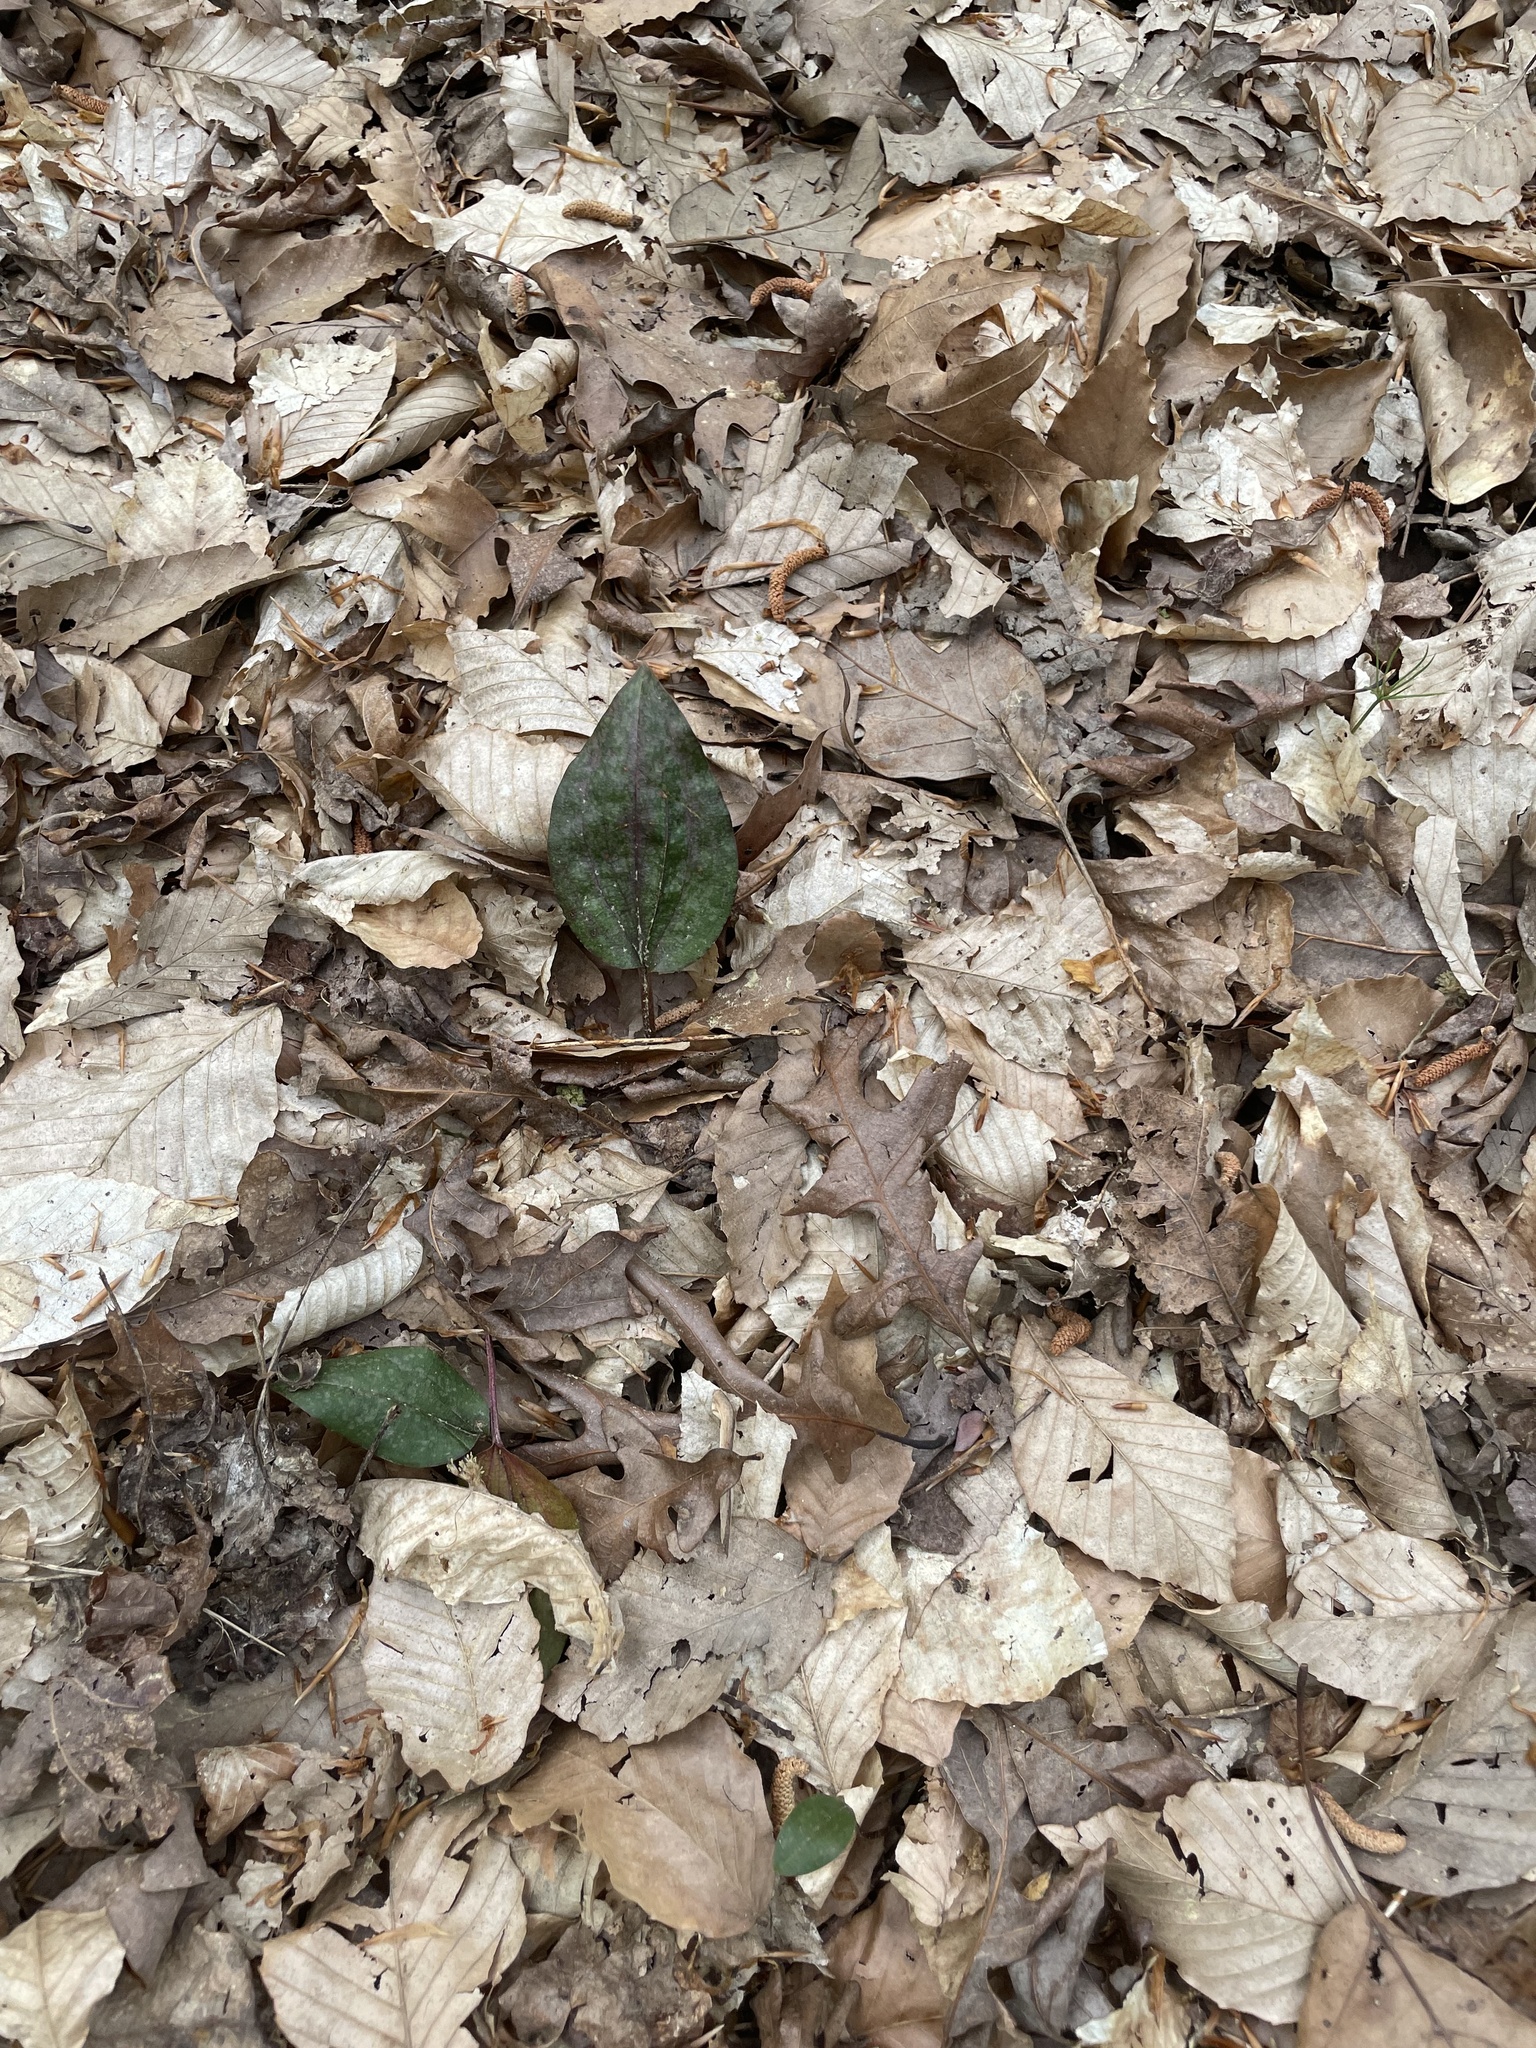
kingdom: Plantae
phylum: Tracheophyta
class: Liliopsida
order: Asparagales
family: Orchidaceae
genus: Tipularia
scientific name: Tipularia discolor
